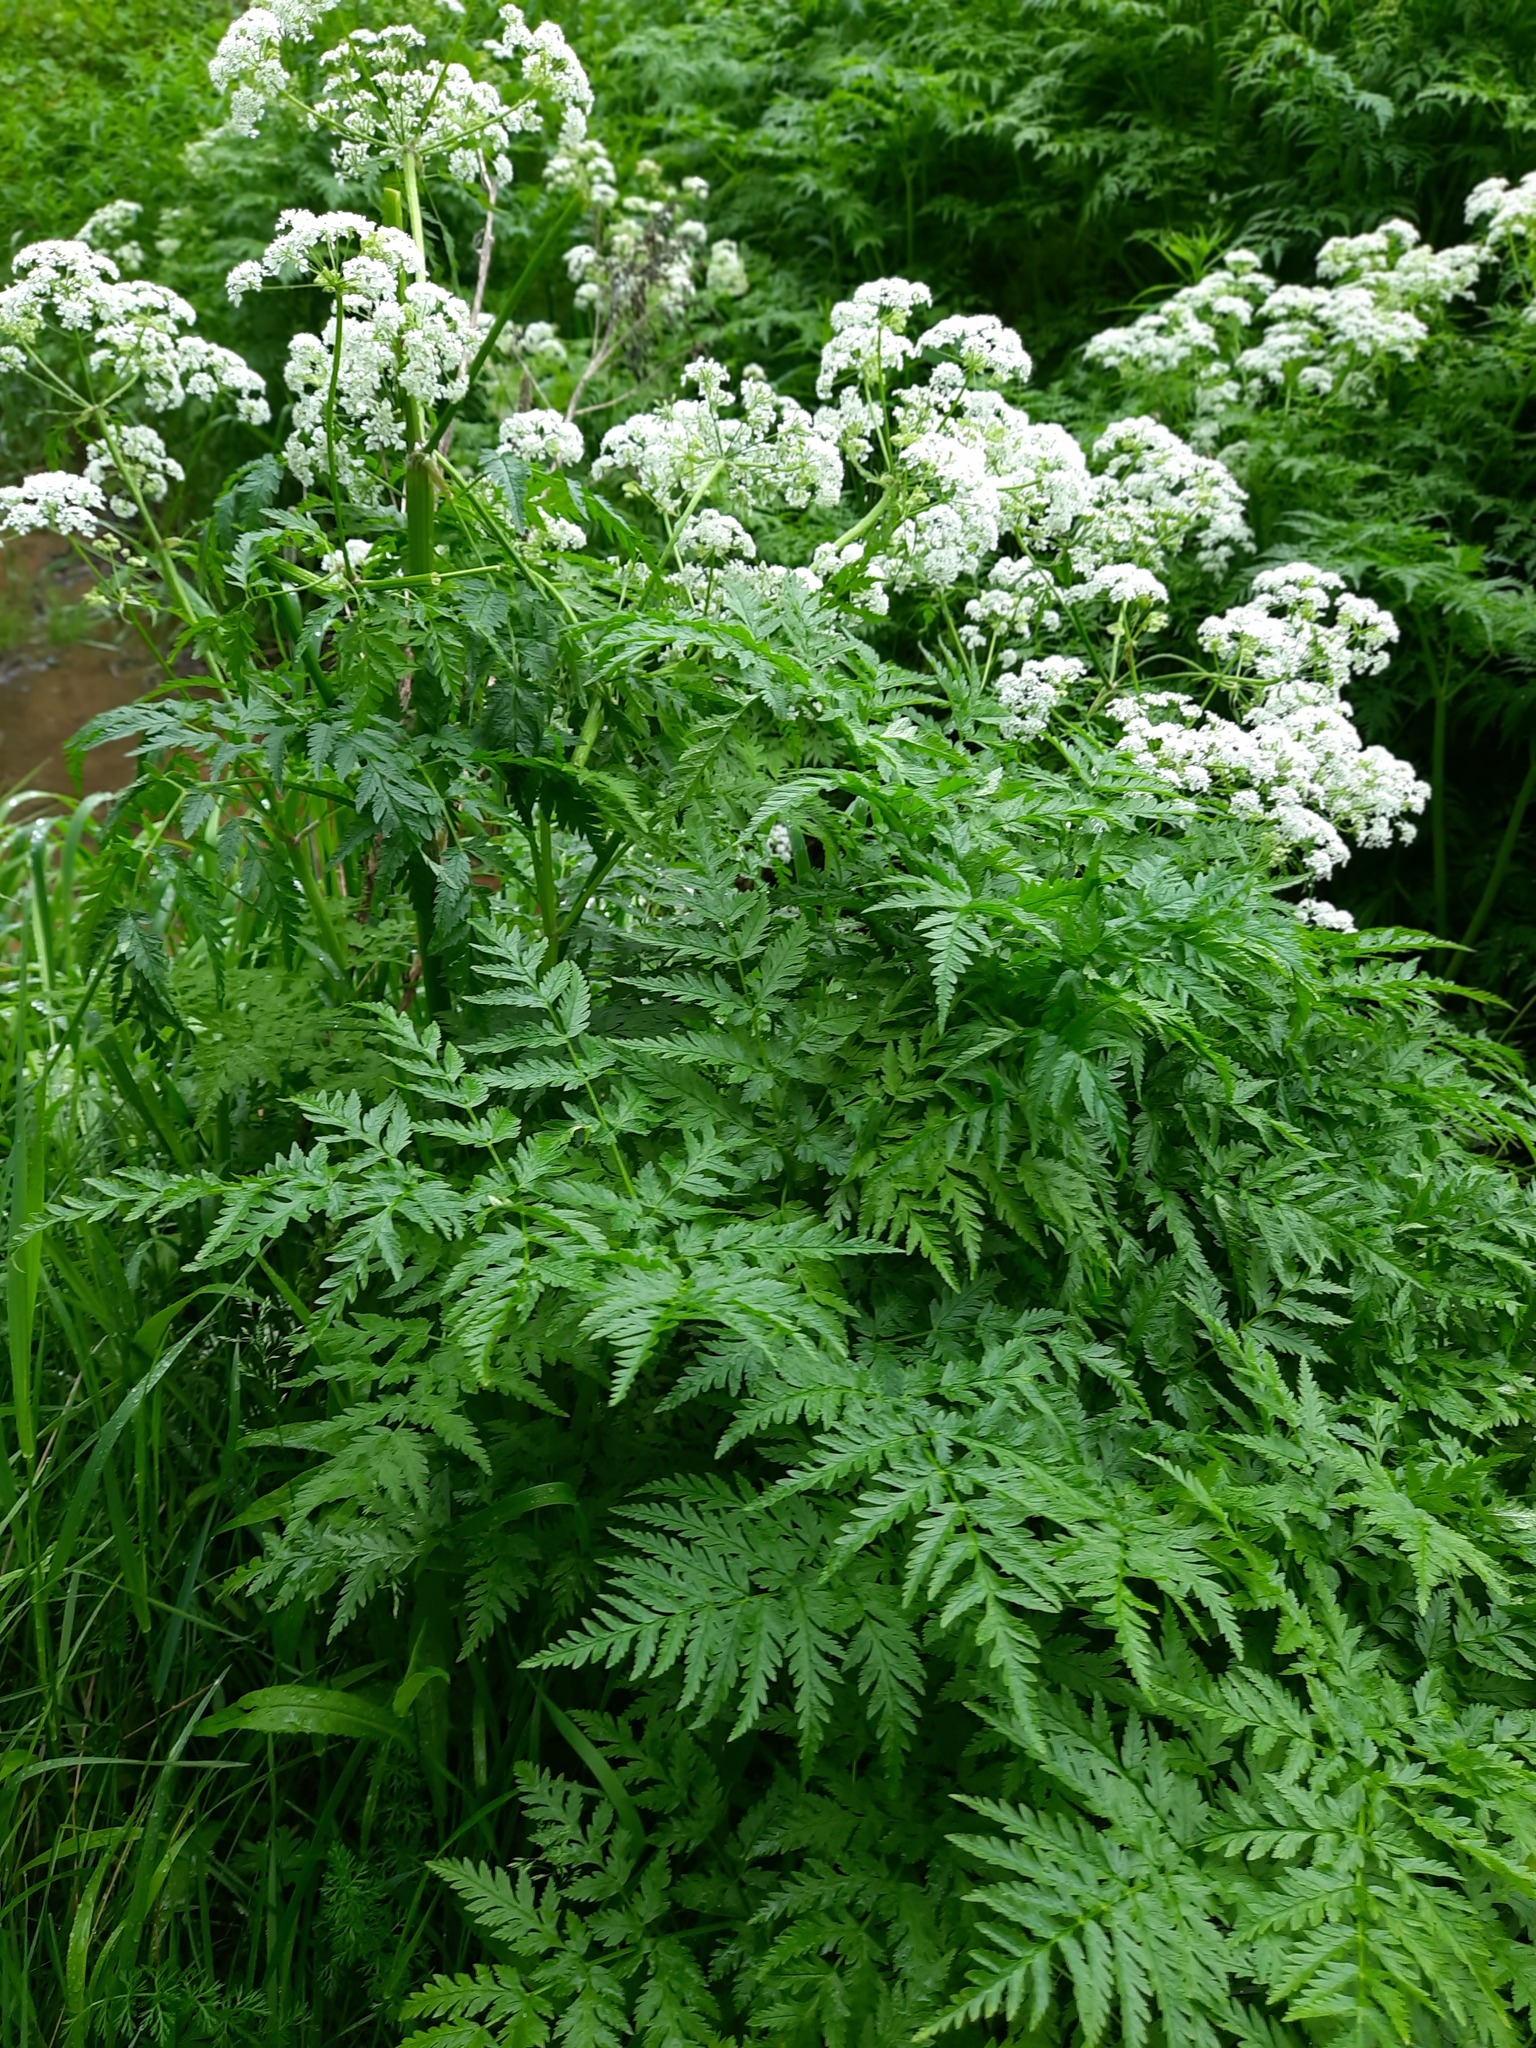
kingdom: Plantae
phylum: Tracheophyta
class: Magnoliopsida
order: Apiales
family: Apiaceae
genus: Anthriscus
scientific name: Anthriscus sylvestris
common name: Cow parsley
